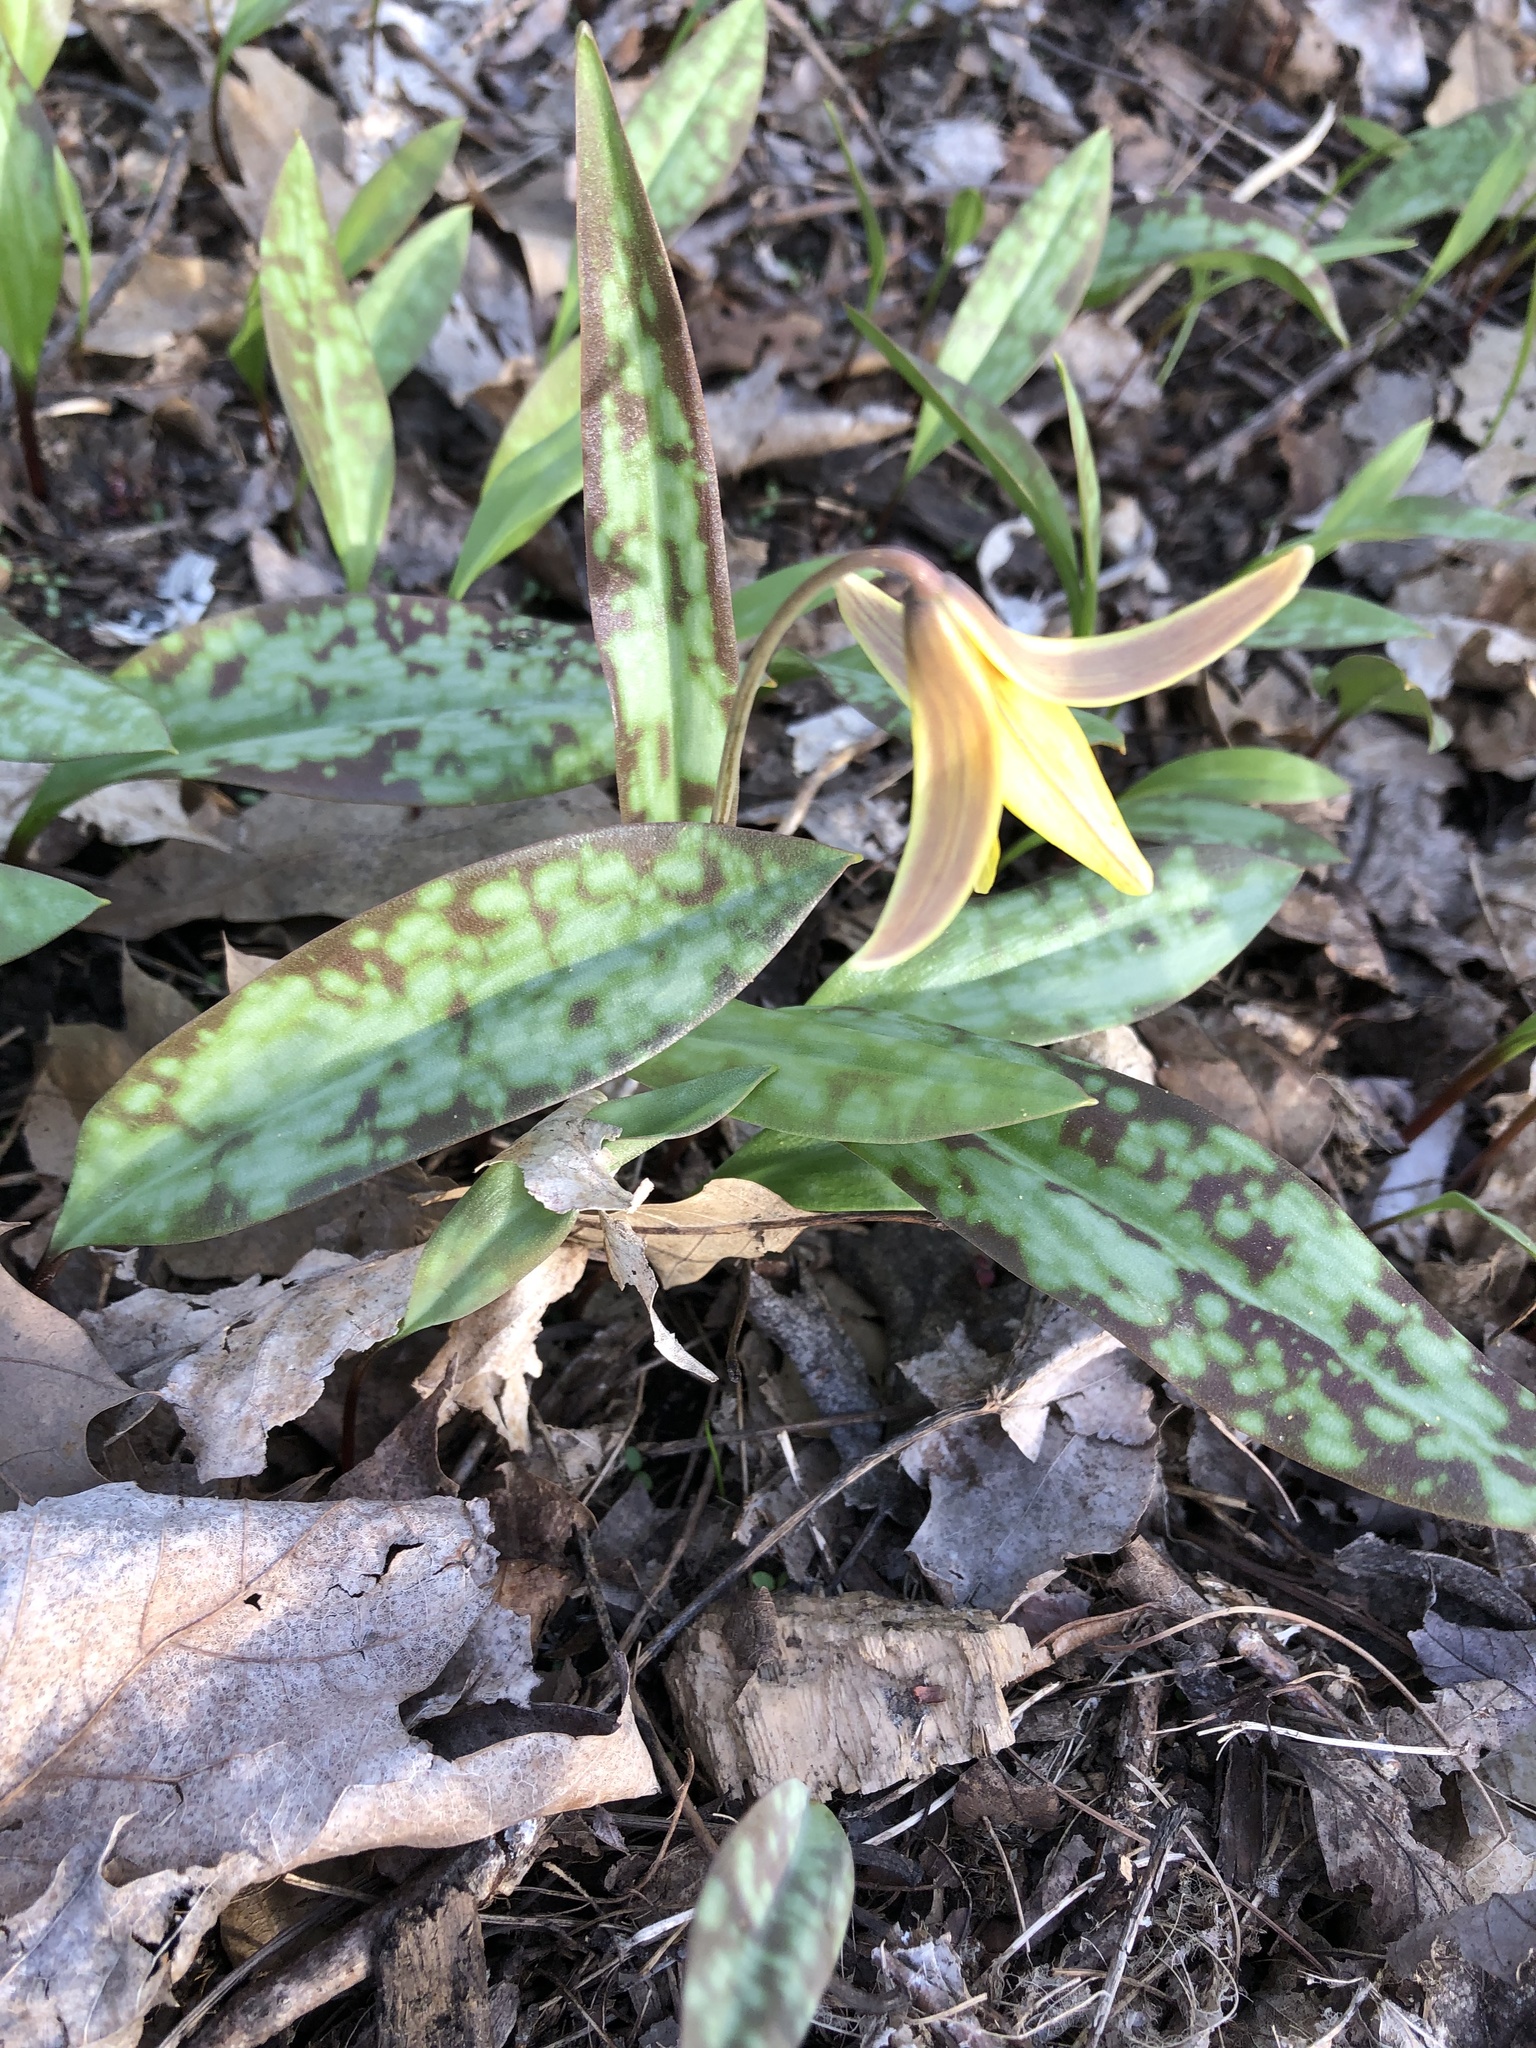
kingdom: Plantae
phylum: Tracheophyta
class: Liliopsida
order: Liliales
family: Liliaceae
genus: Erythronium
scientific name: Erythronium americanum
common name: Yellow adder's-tongue
